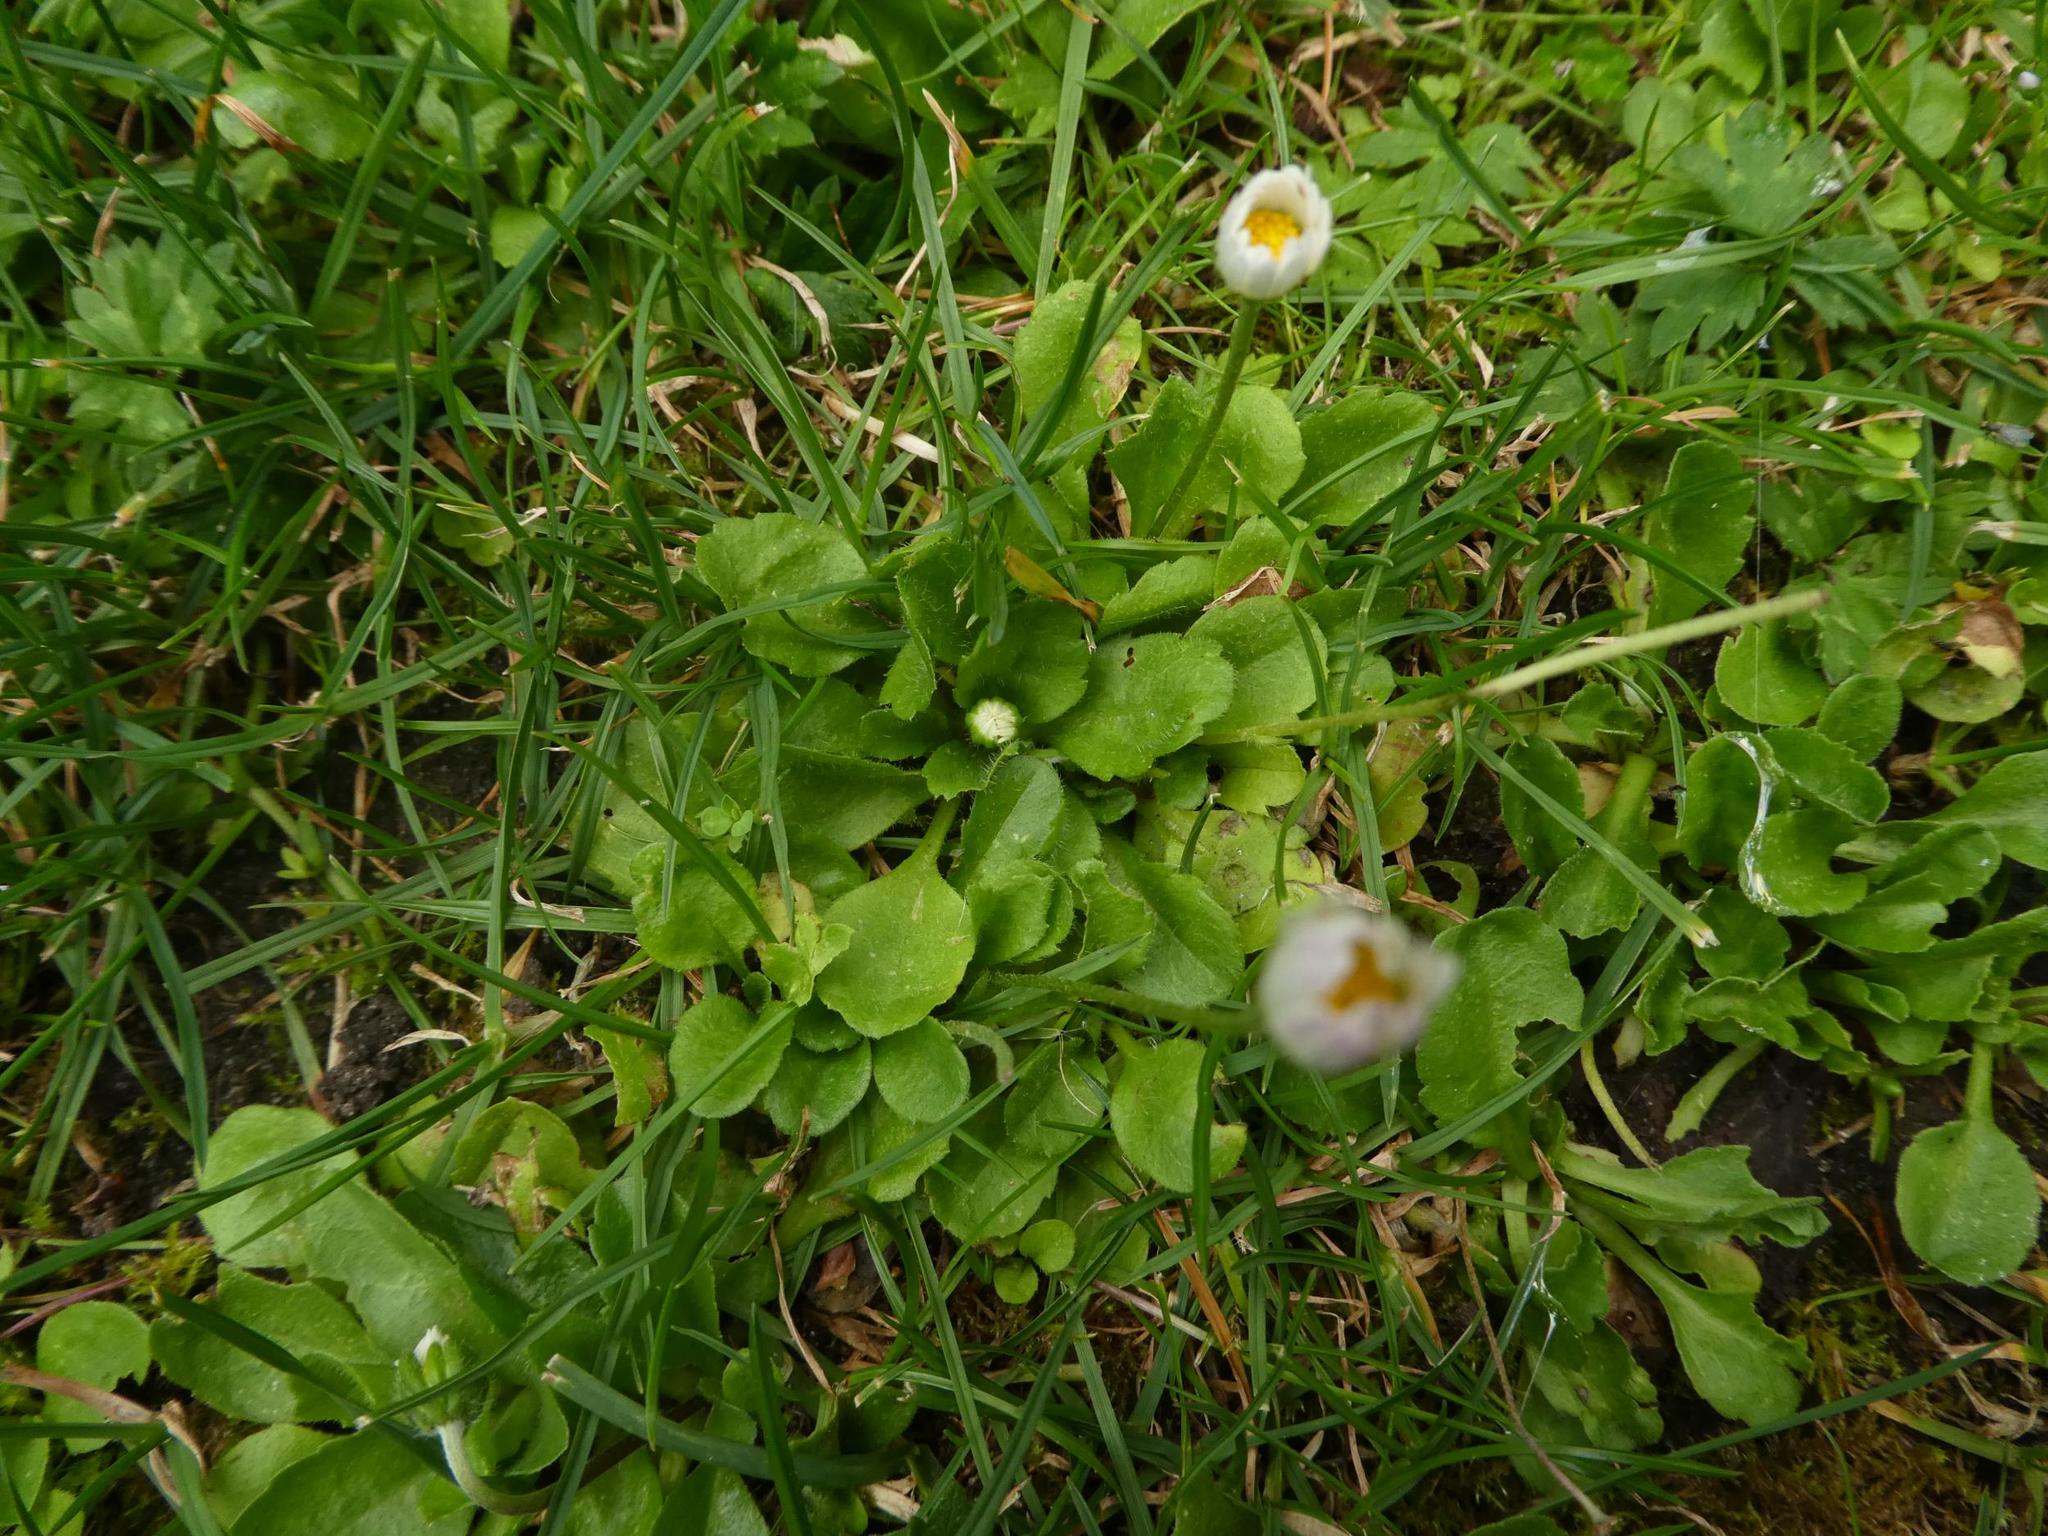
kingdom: Plantae
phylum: Tracheophyta
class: Magnoliopsida
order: Asterales
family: Asteraceae
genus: Bellis
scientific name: Bellis perennis
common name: Lawndaisy
